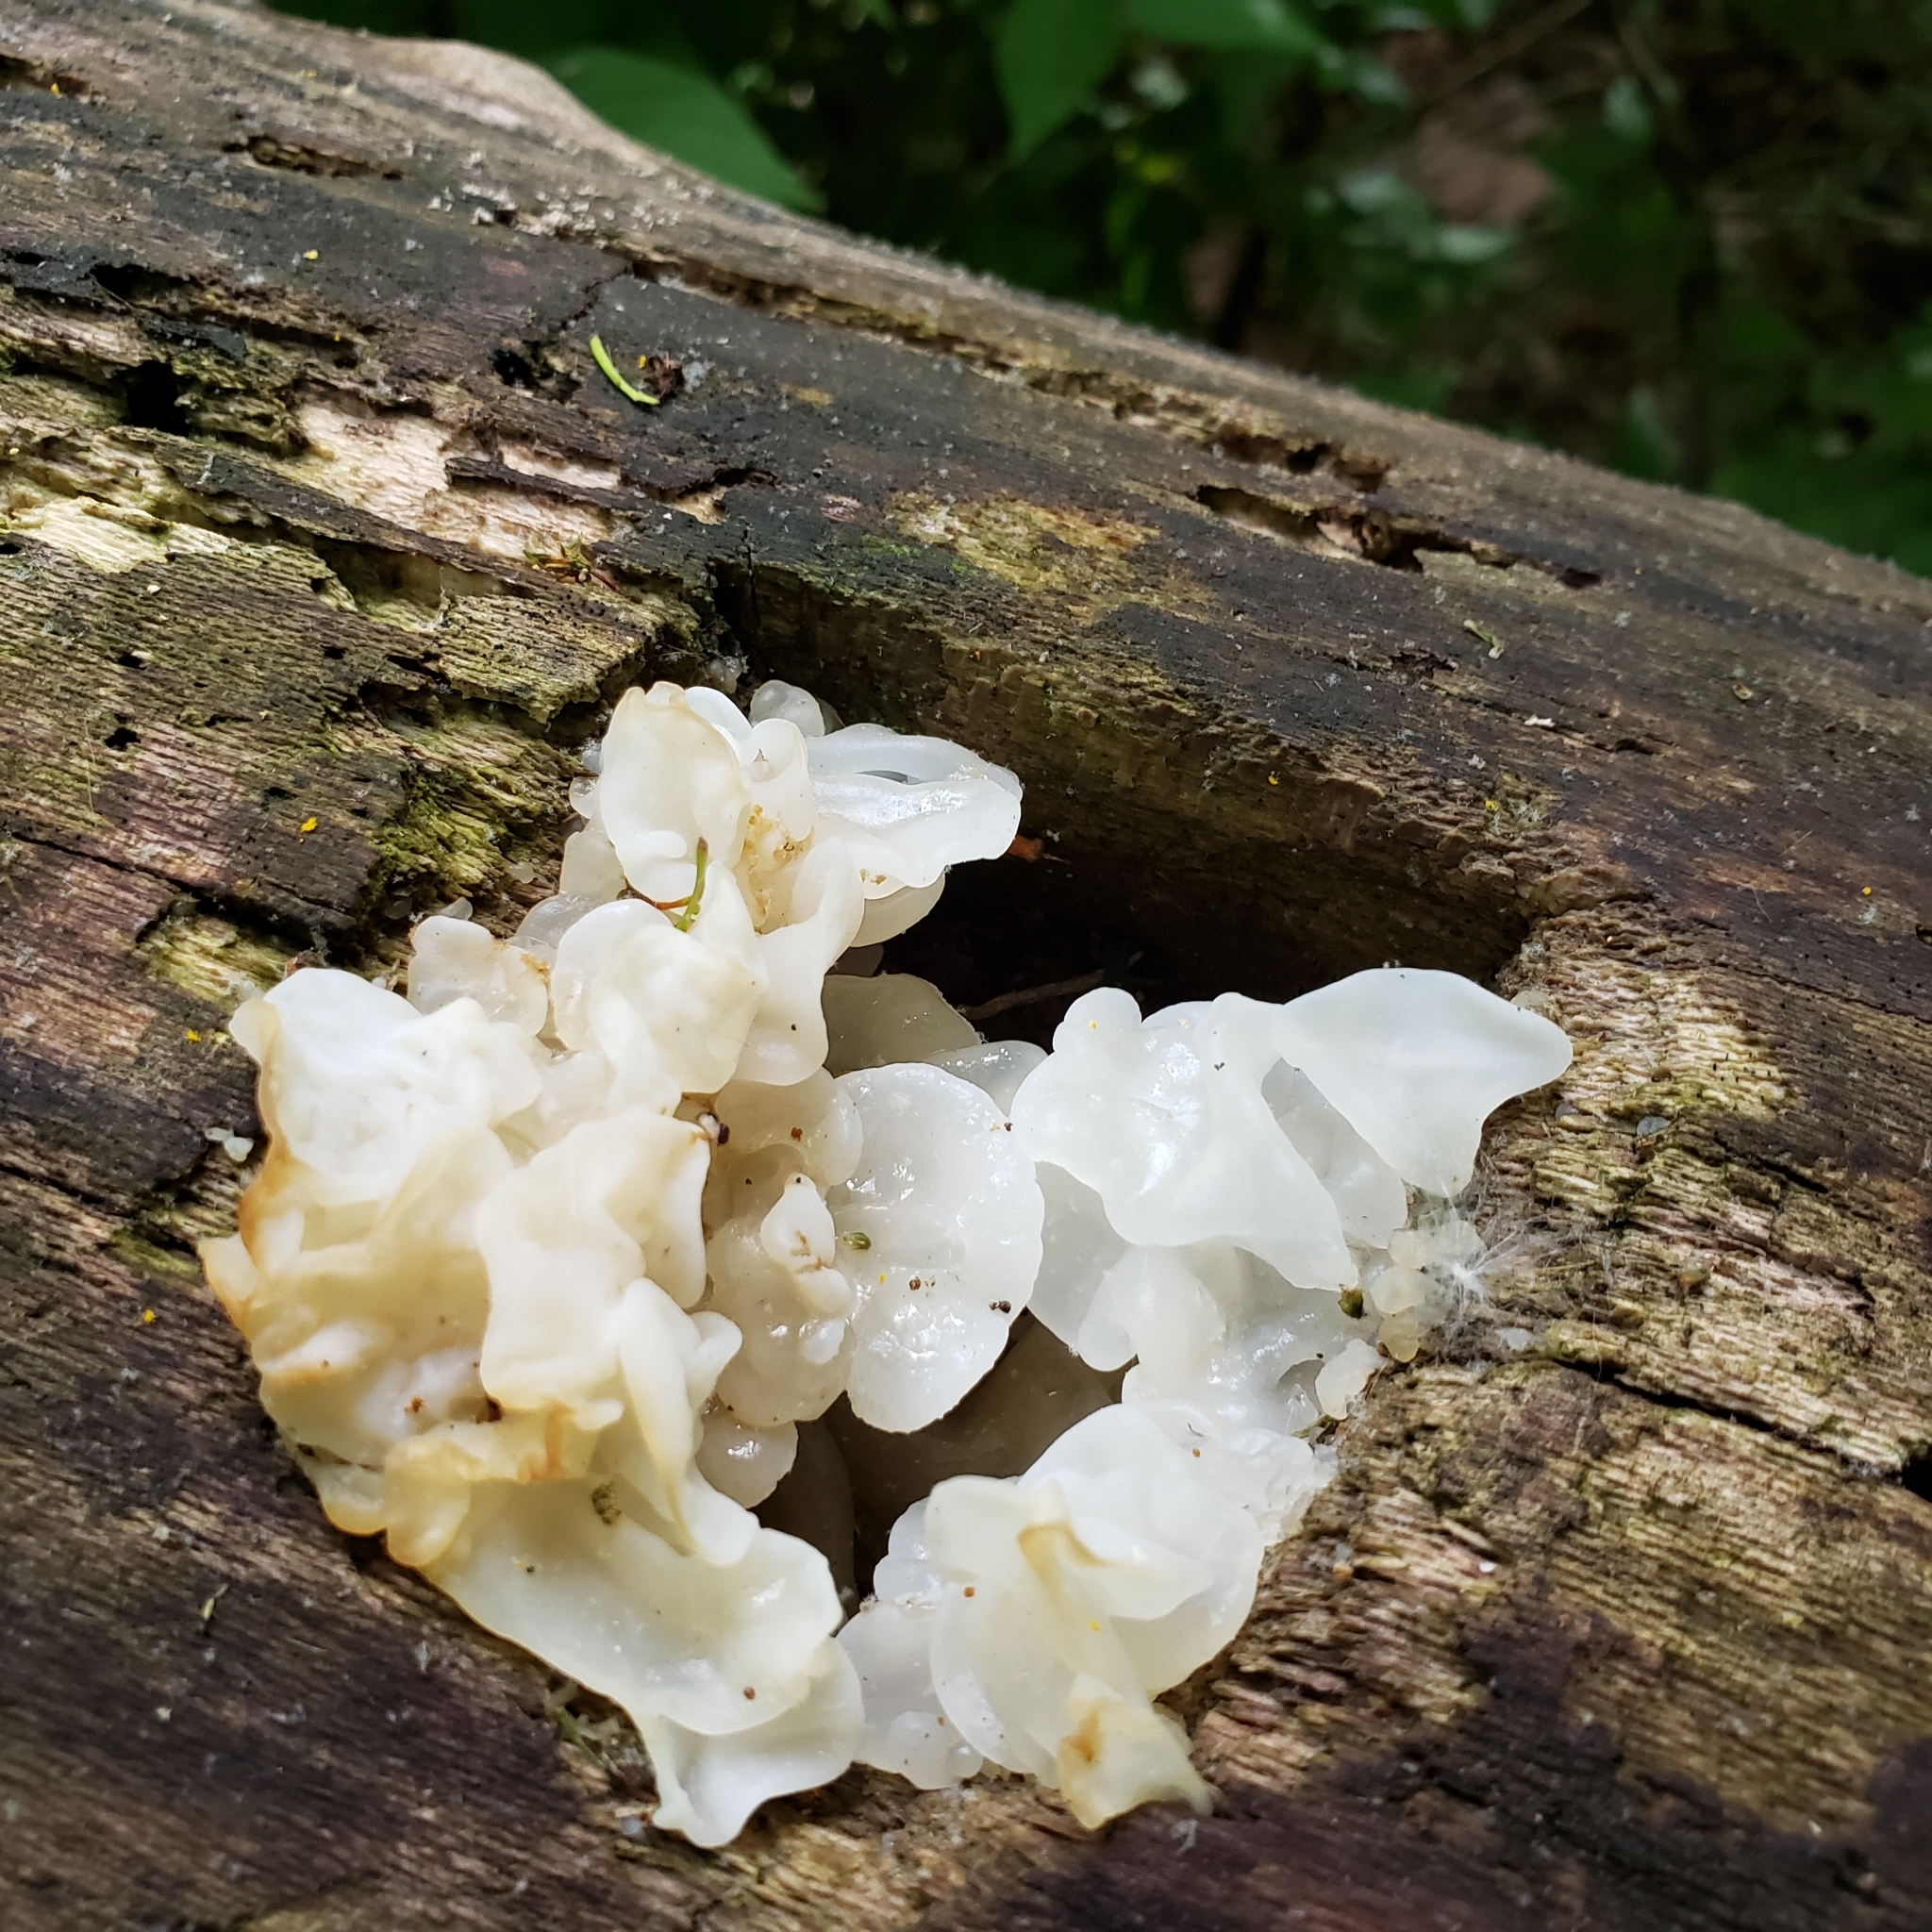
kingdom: Fungi
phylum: Basidiomycota
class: Agaricomycetes
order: Auriculariales
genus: Ductifera
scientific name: Ductifera pululahuana
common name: White jelly fungus
